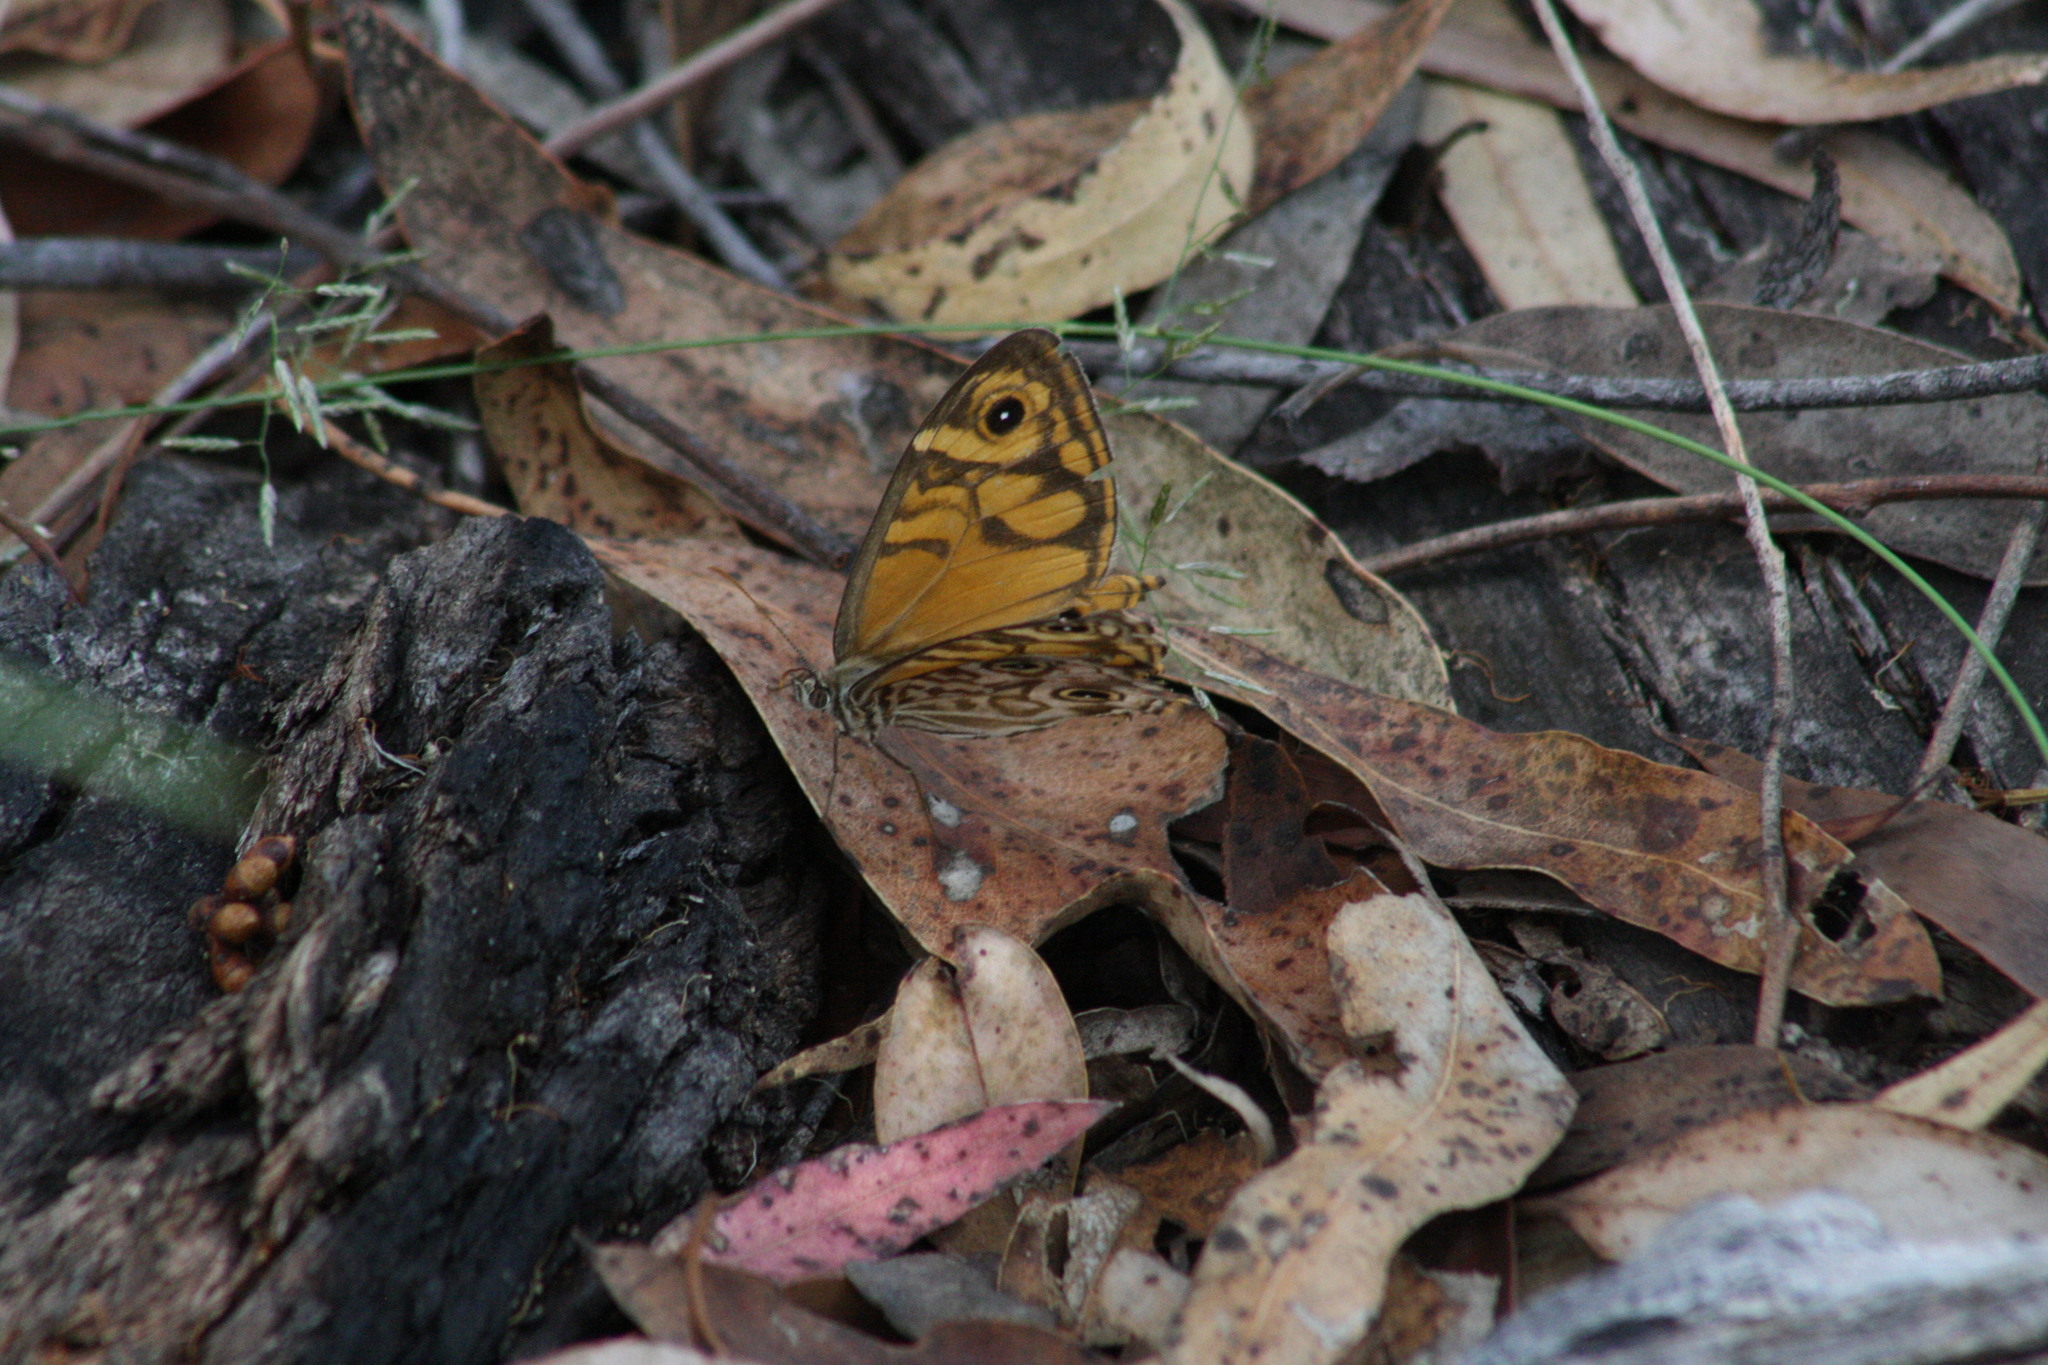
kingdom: Animalia
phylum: Arthropoda
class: Insecta
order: Lepidoptera
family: Nymphalidae
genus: Geitoneura
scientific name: Geitoneura acantha
